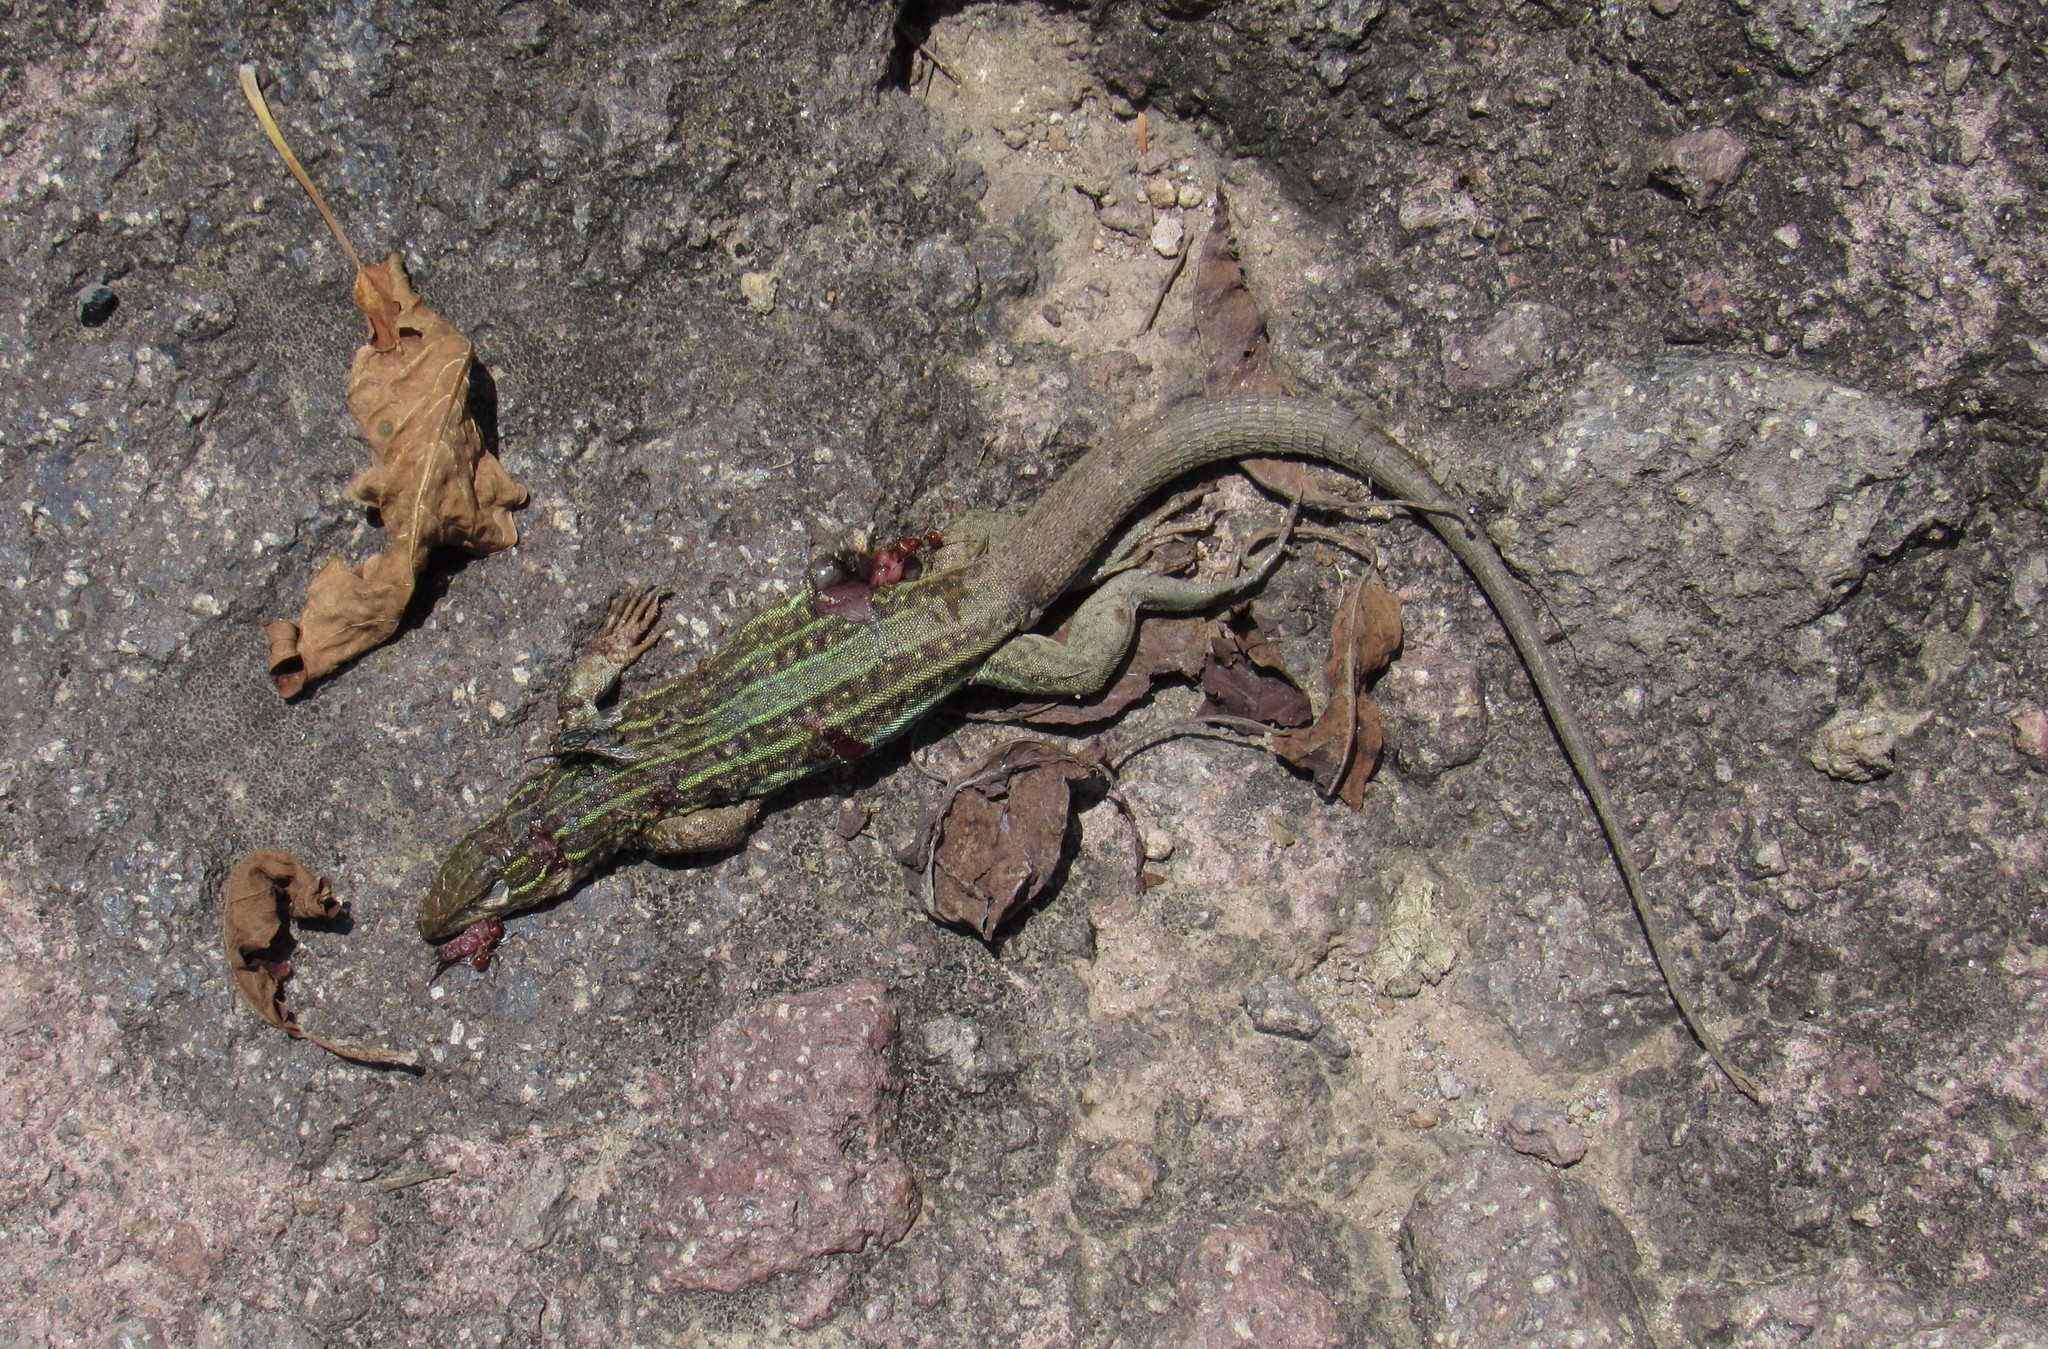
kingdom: Animalia
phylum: Chordata
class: Squamata
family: Teiidae
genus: Aspidoscelis
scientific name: Aspidoscelis gularis
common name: Eastern spotted whiptail
